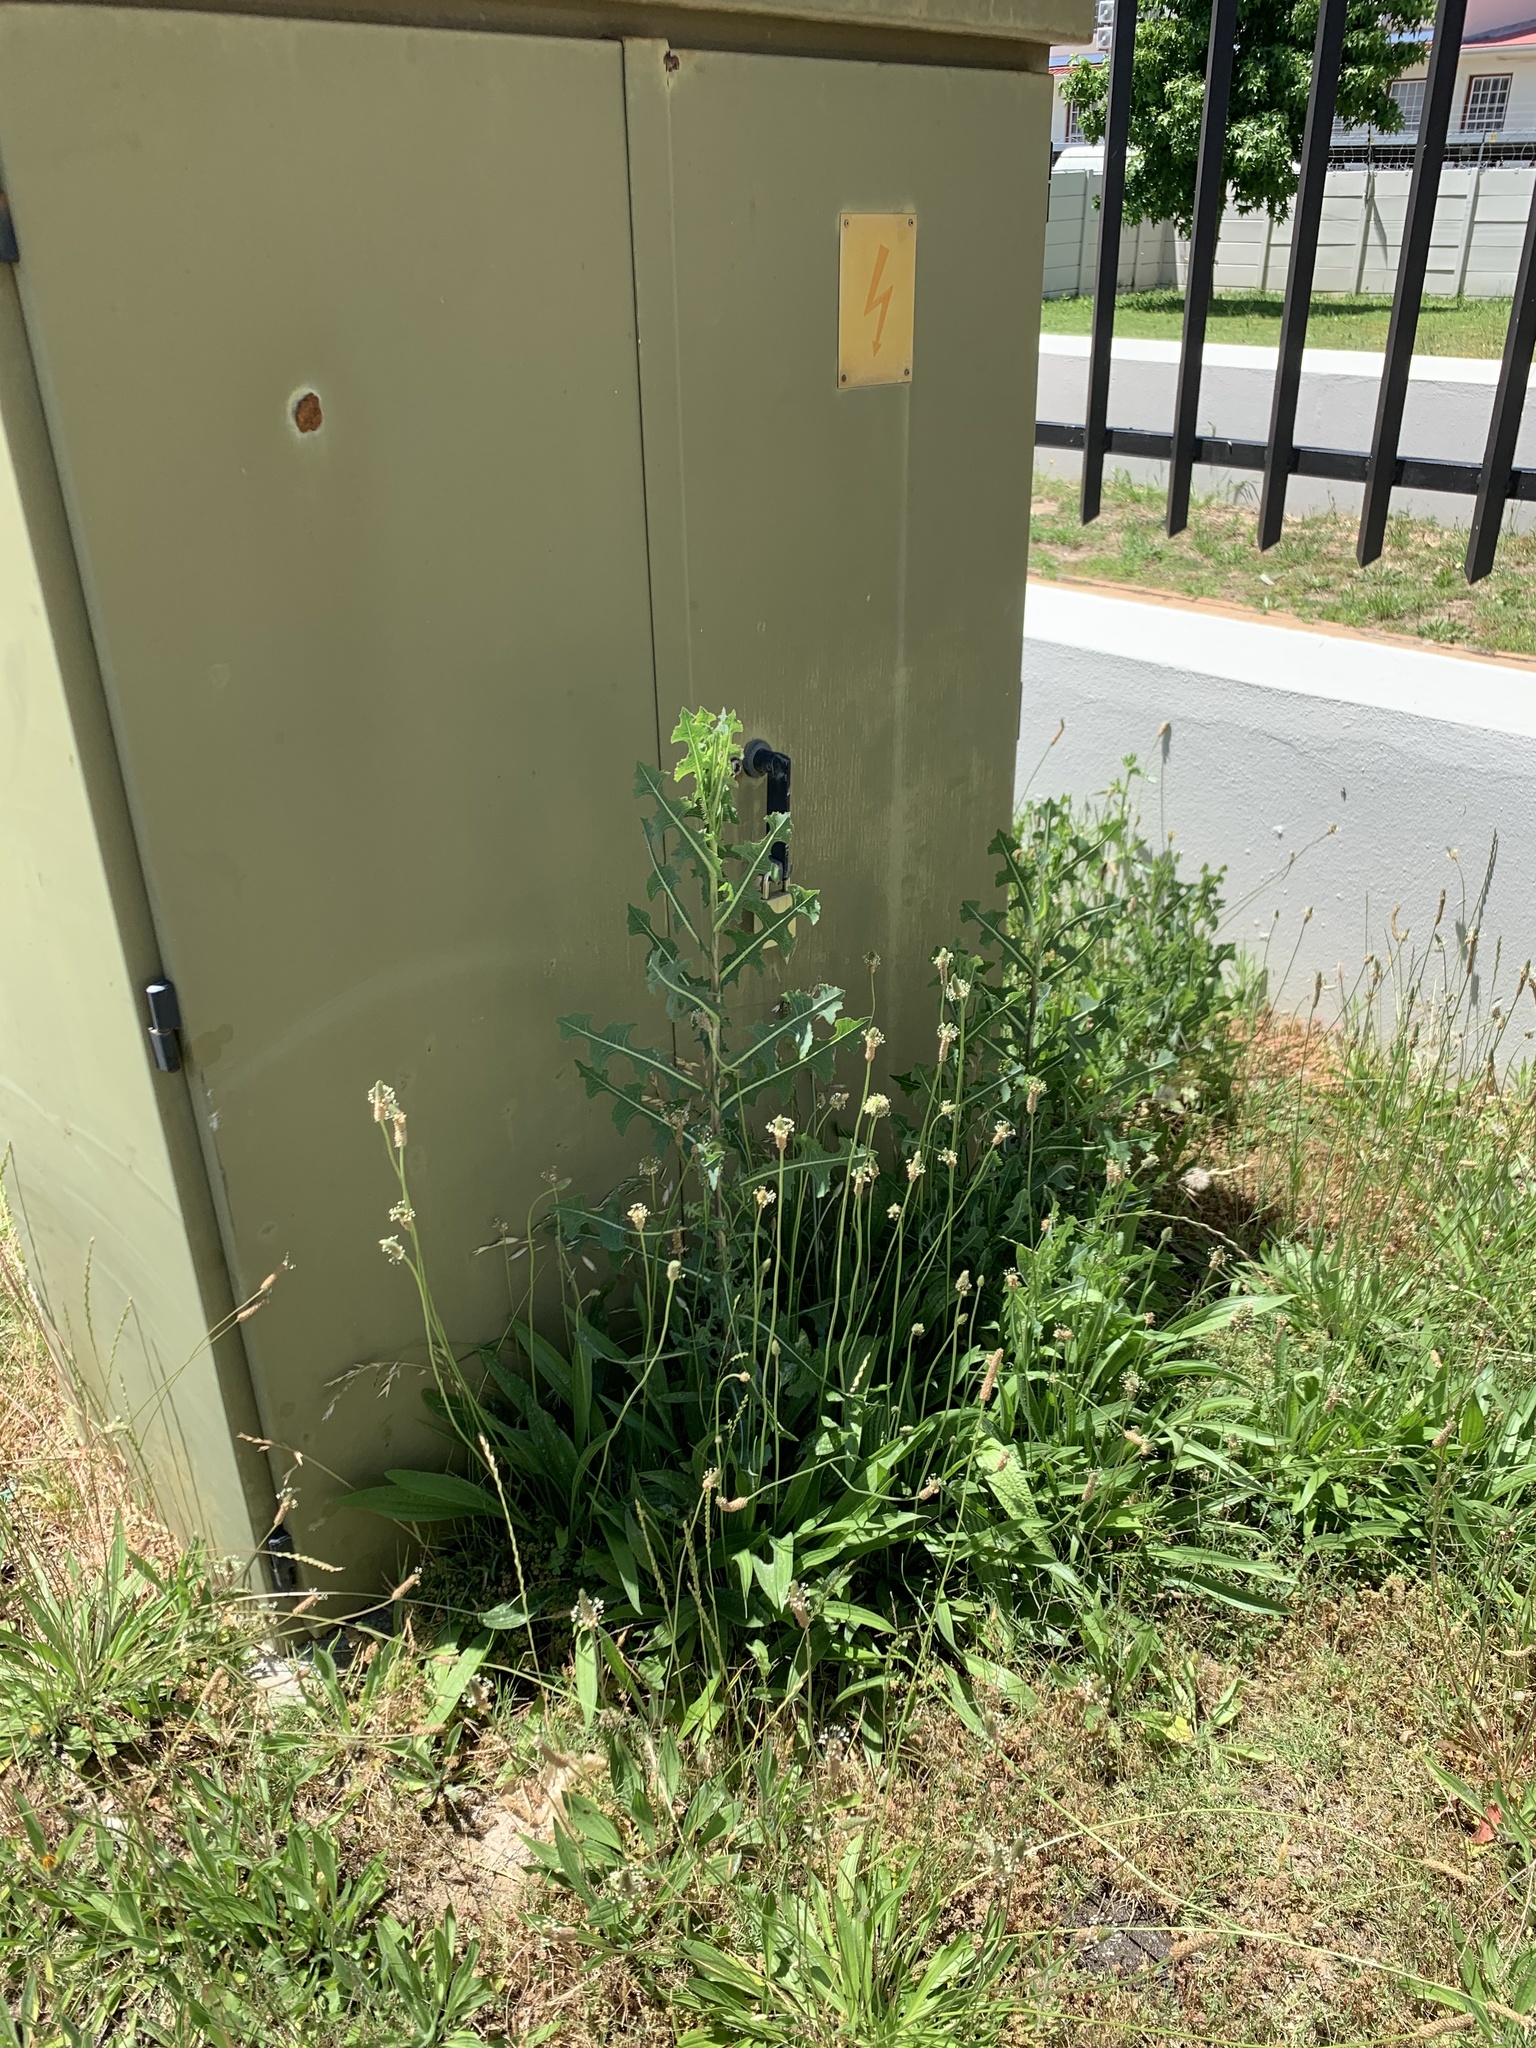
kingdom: Plantae
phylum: Tracheophyta
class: Magnoliopsida
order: Asterales
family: Asteraceae
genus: Lactuca
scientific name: Lactuca serriola
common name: Prickly lettuce
